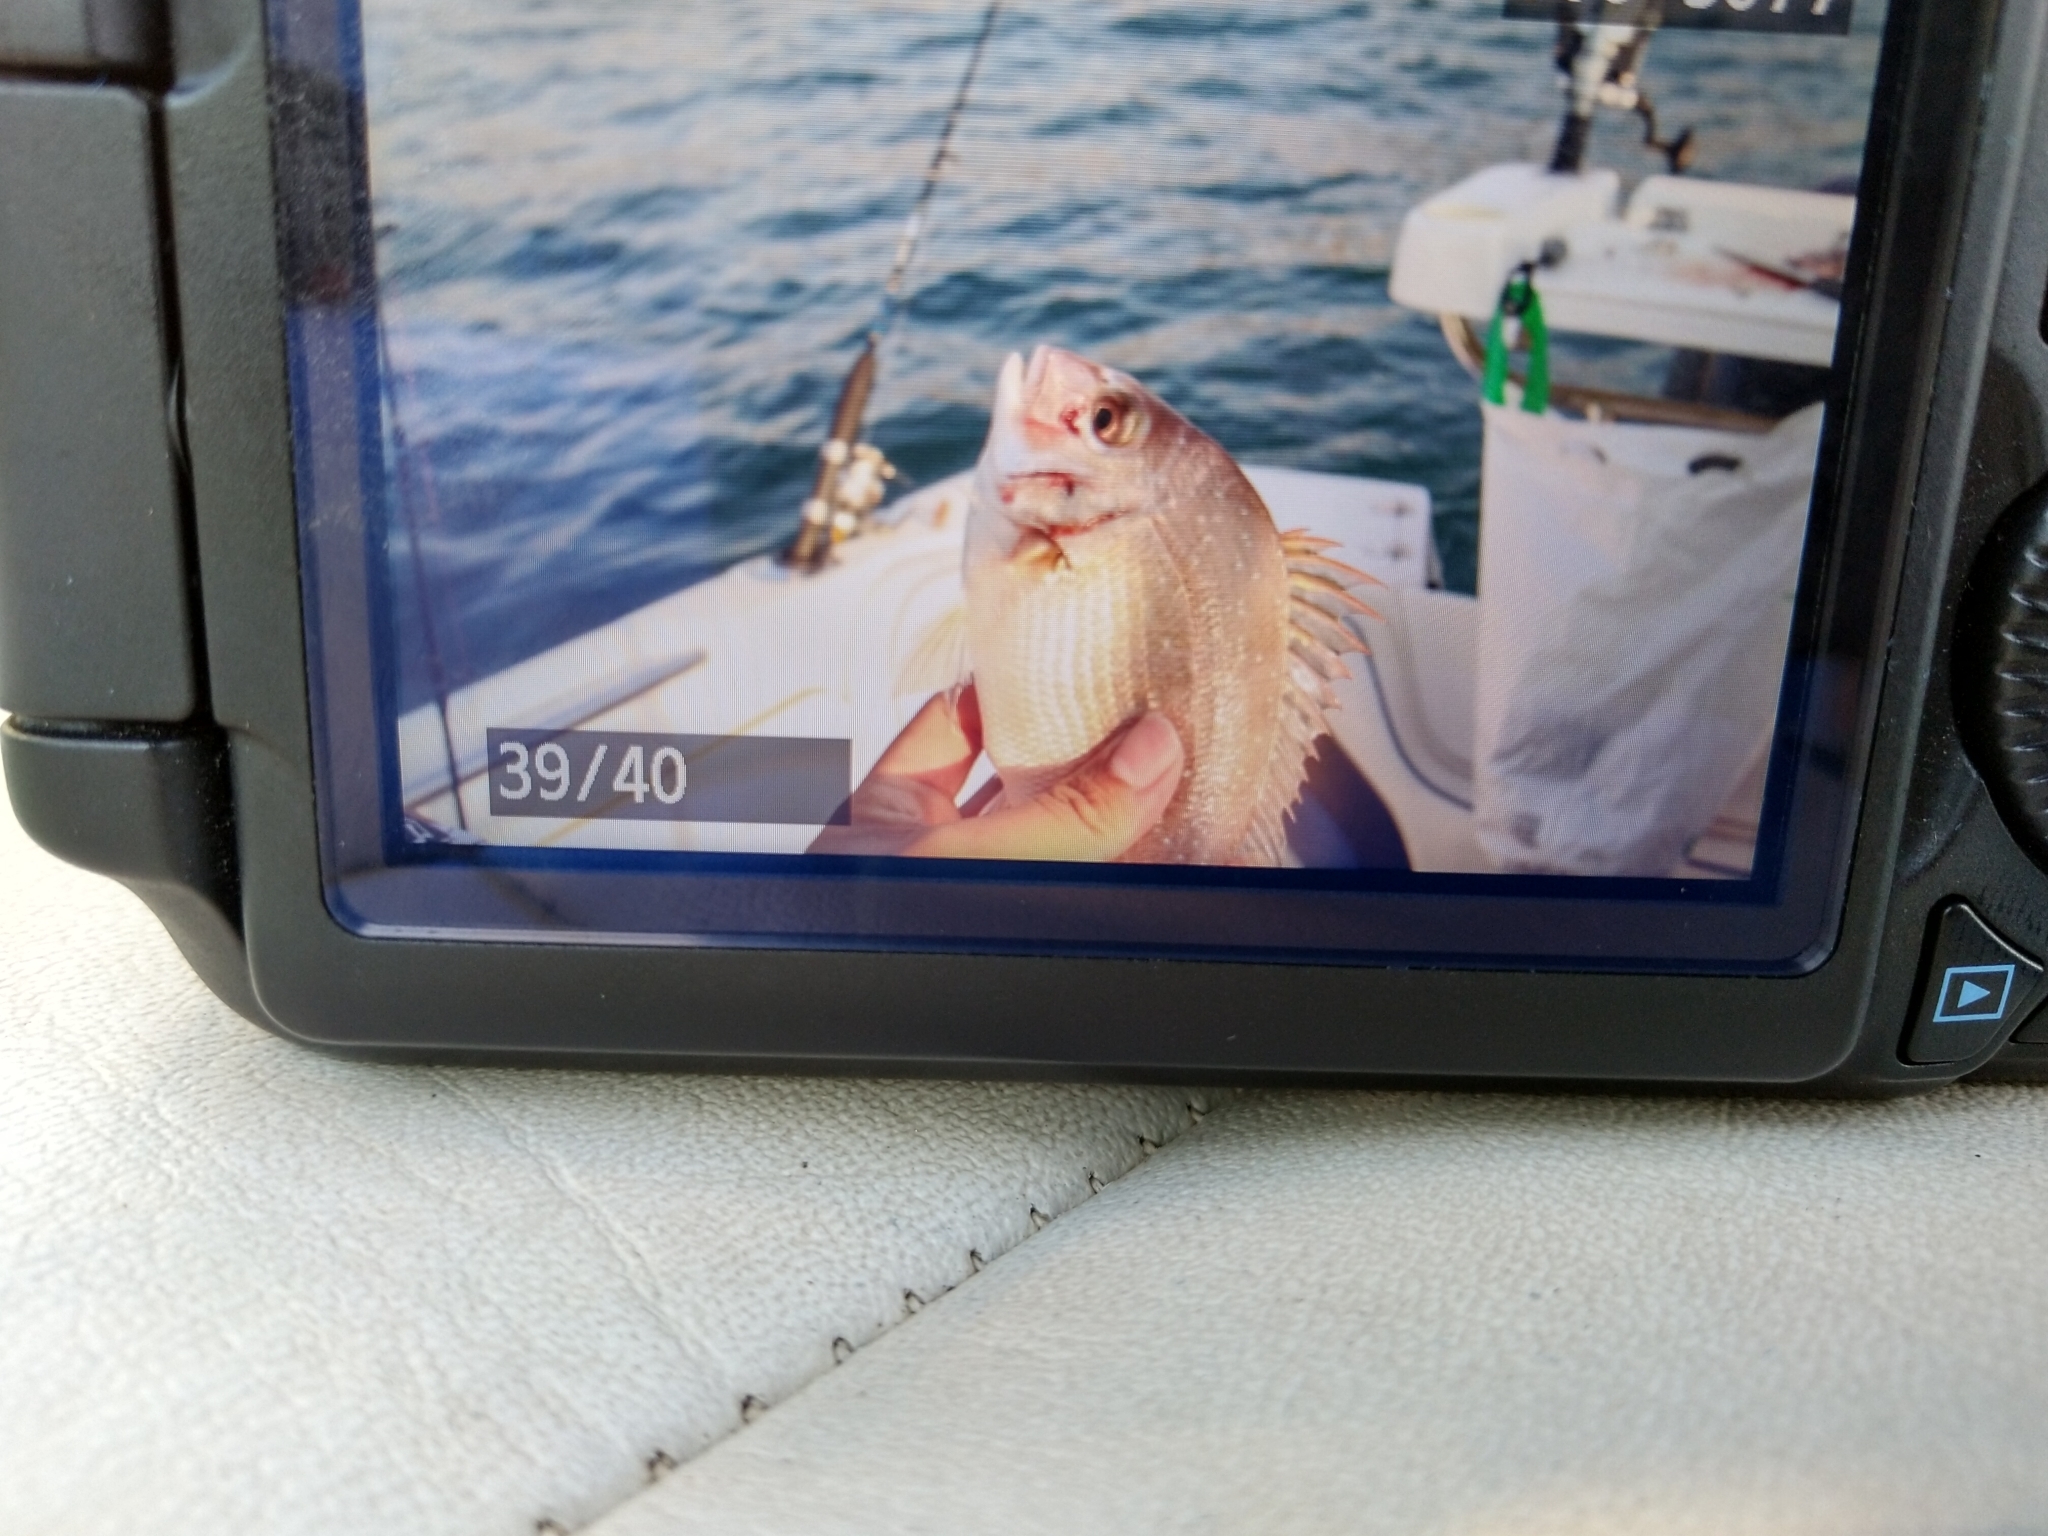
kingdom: Animalia
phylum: Chordata
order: Perciformes
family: Sparidae
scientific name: Sparidae
